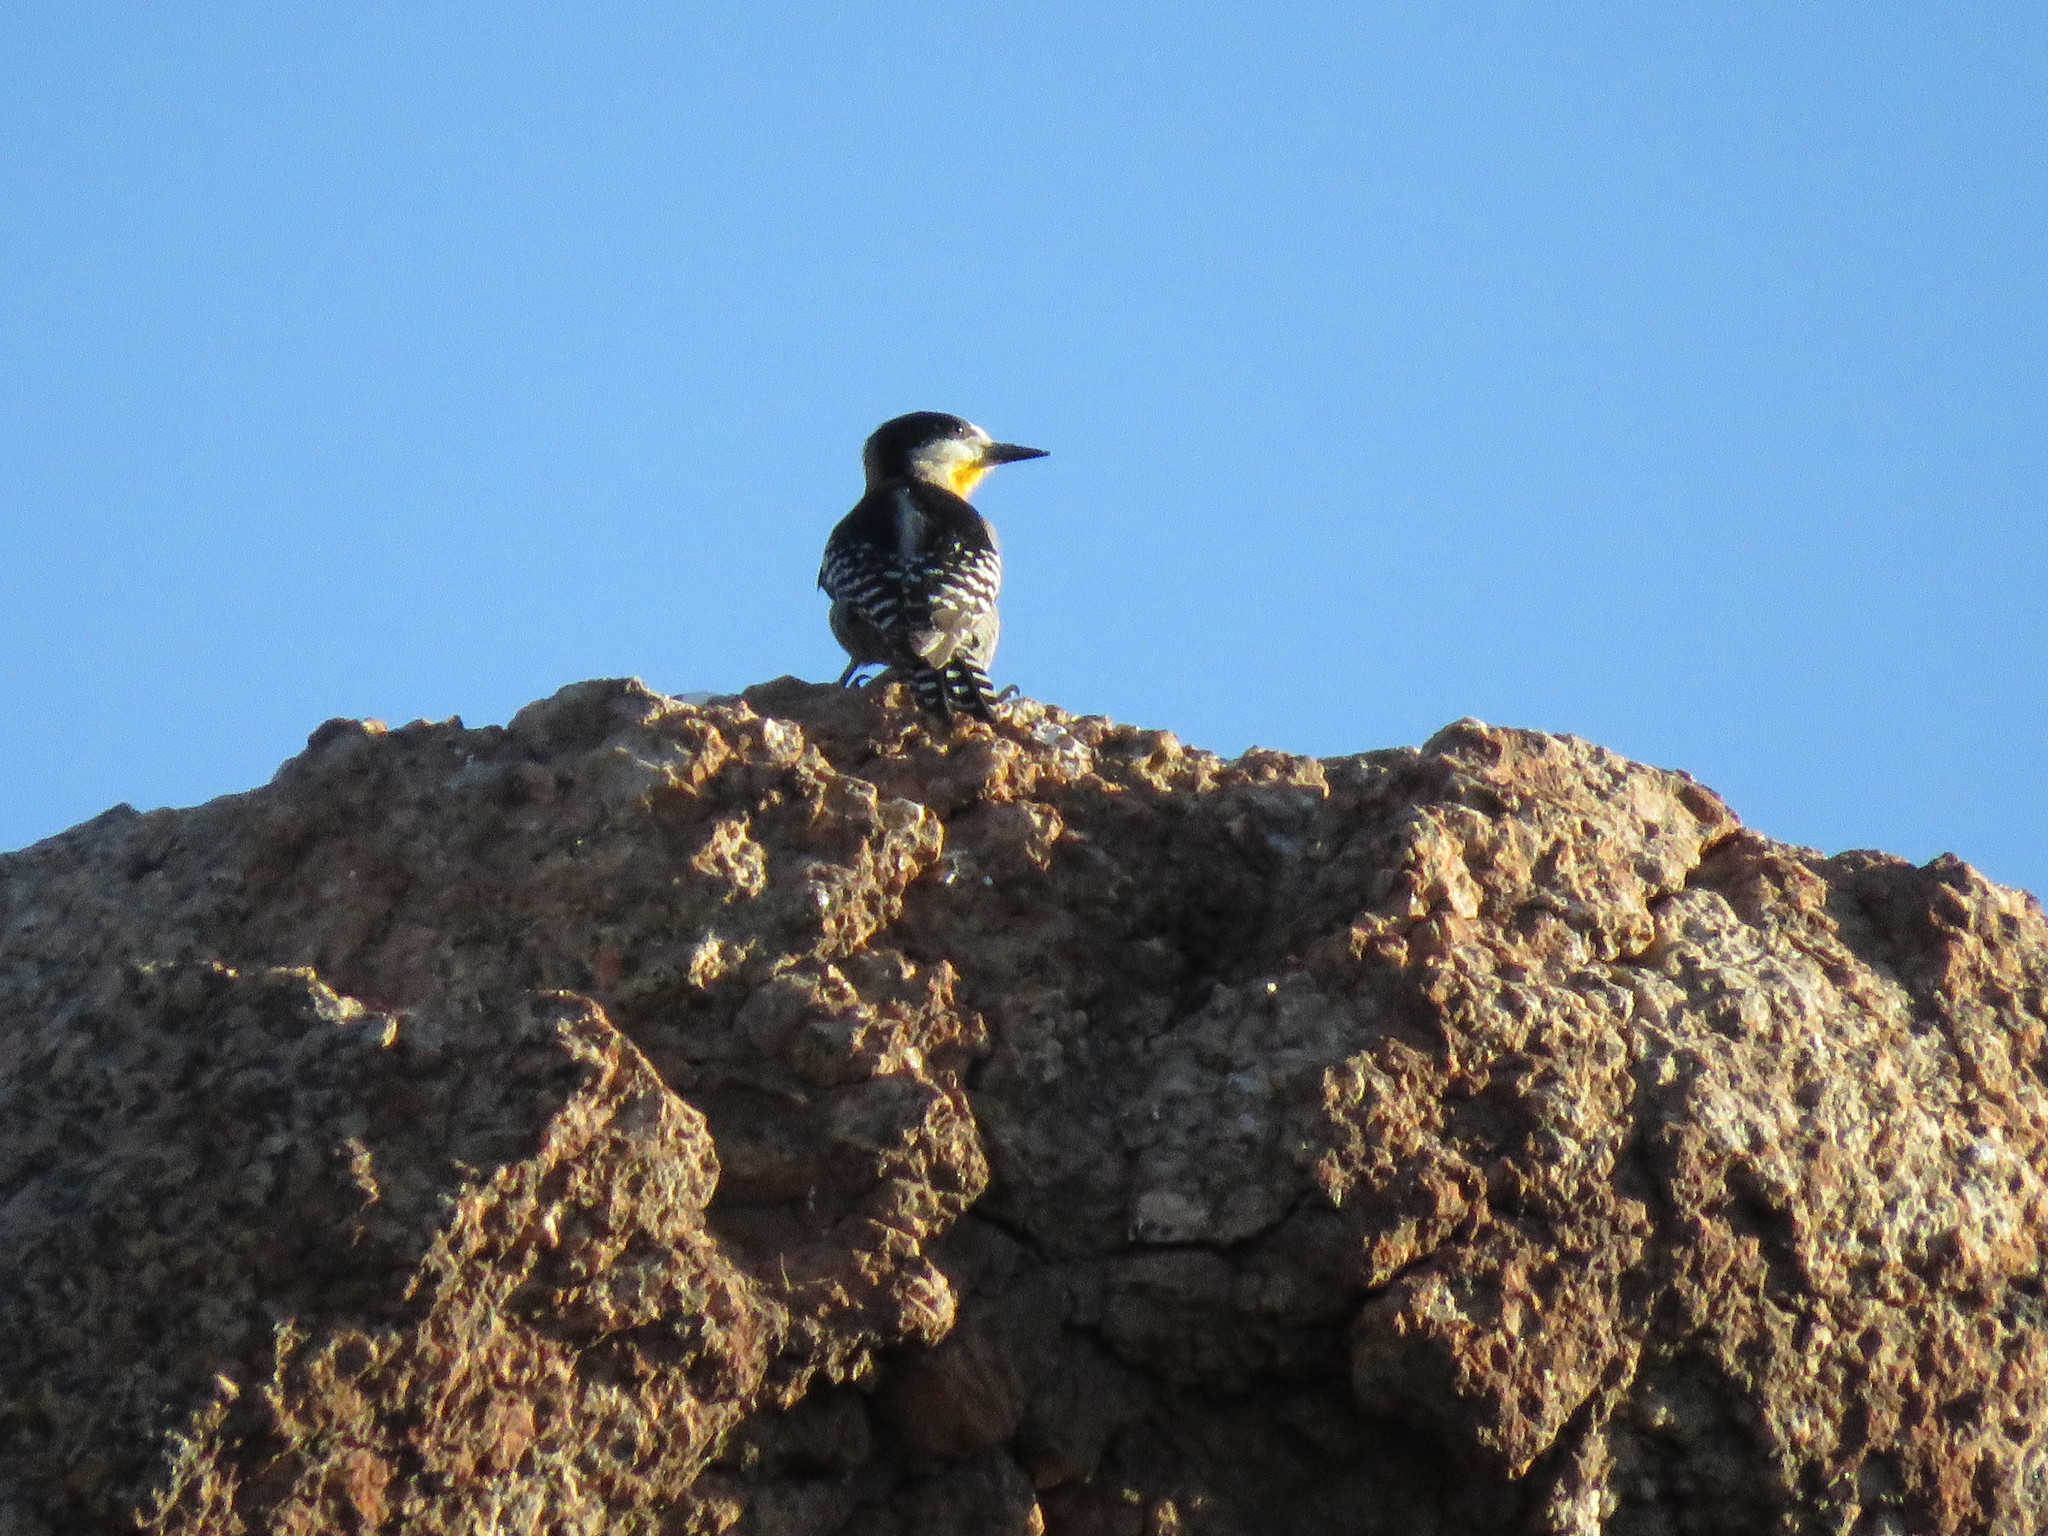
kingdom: Animalia
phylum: Chordata
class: Aves
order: Piciformes
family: Picidae
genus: Melanerpes
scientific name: Melanerpes cactorum
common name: White-fronted woodpecker
